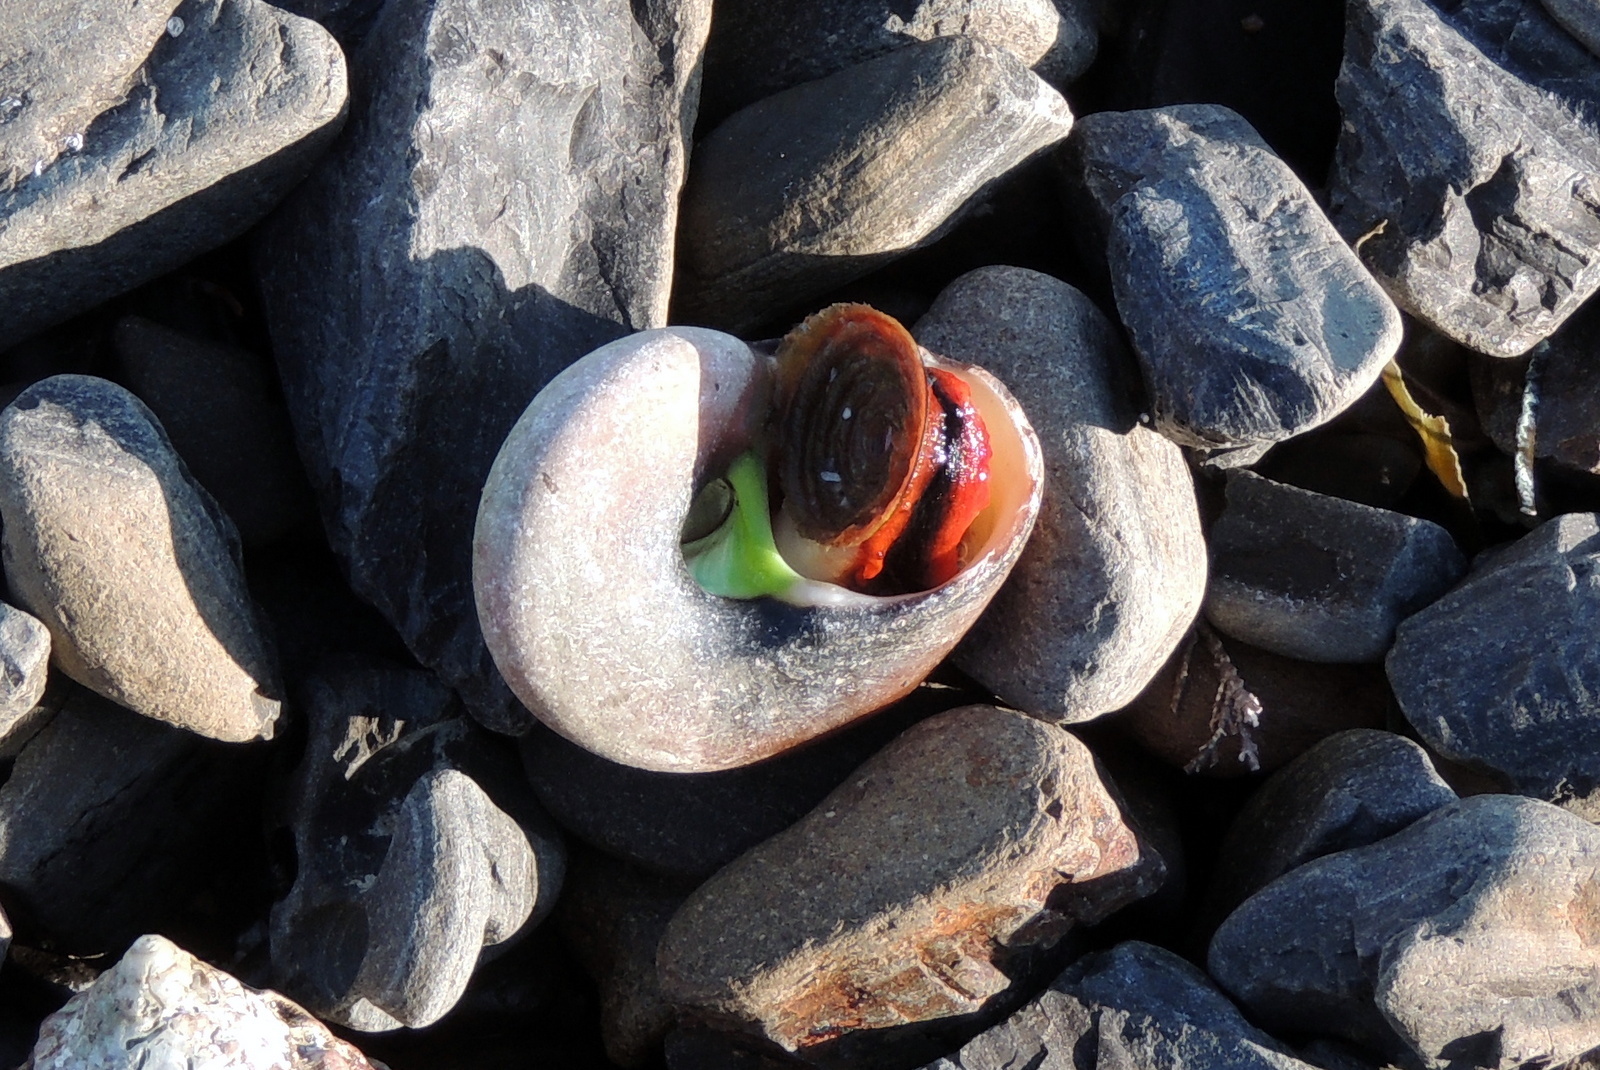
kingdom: Animalia
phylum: Mollusca
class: Gastropoda
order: Trochida
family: Tegulidae
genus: Norrisia
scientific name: Norrisia norrisii
